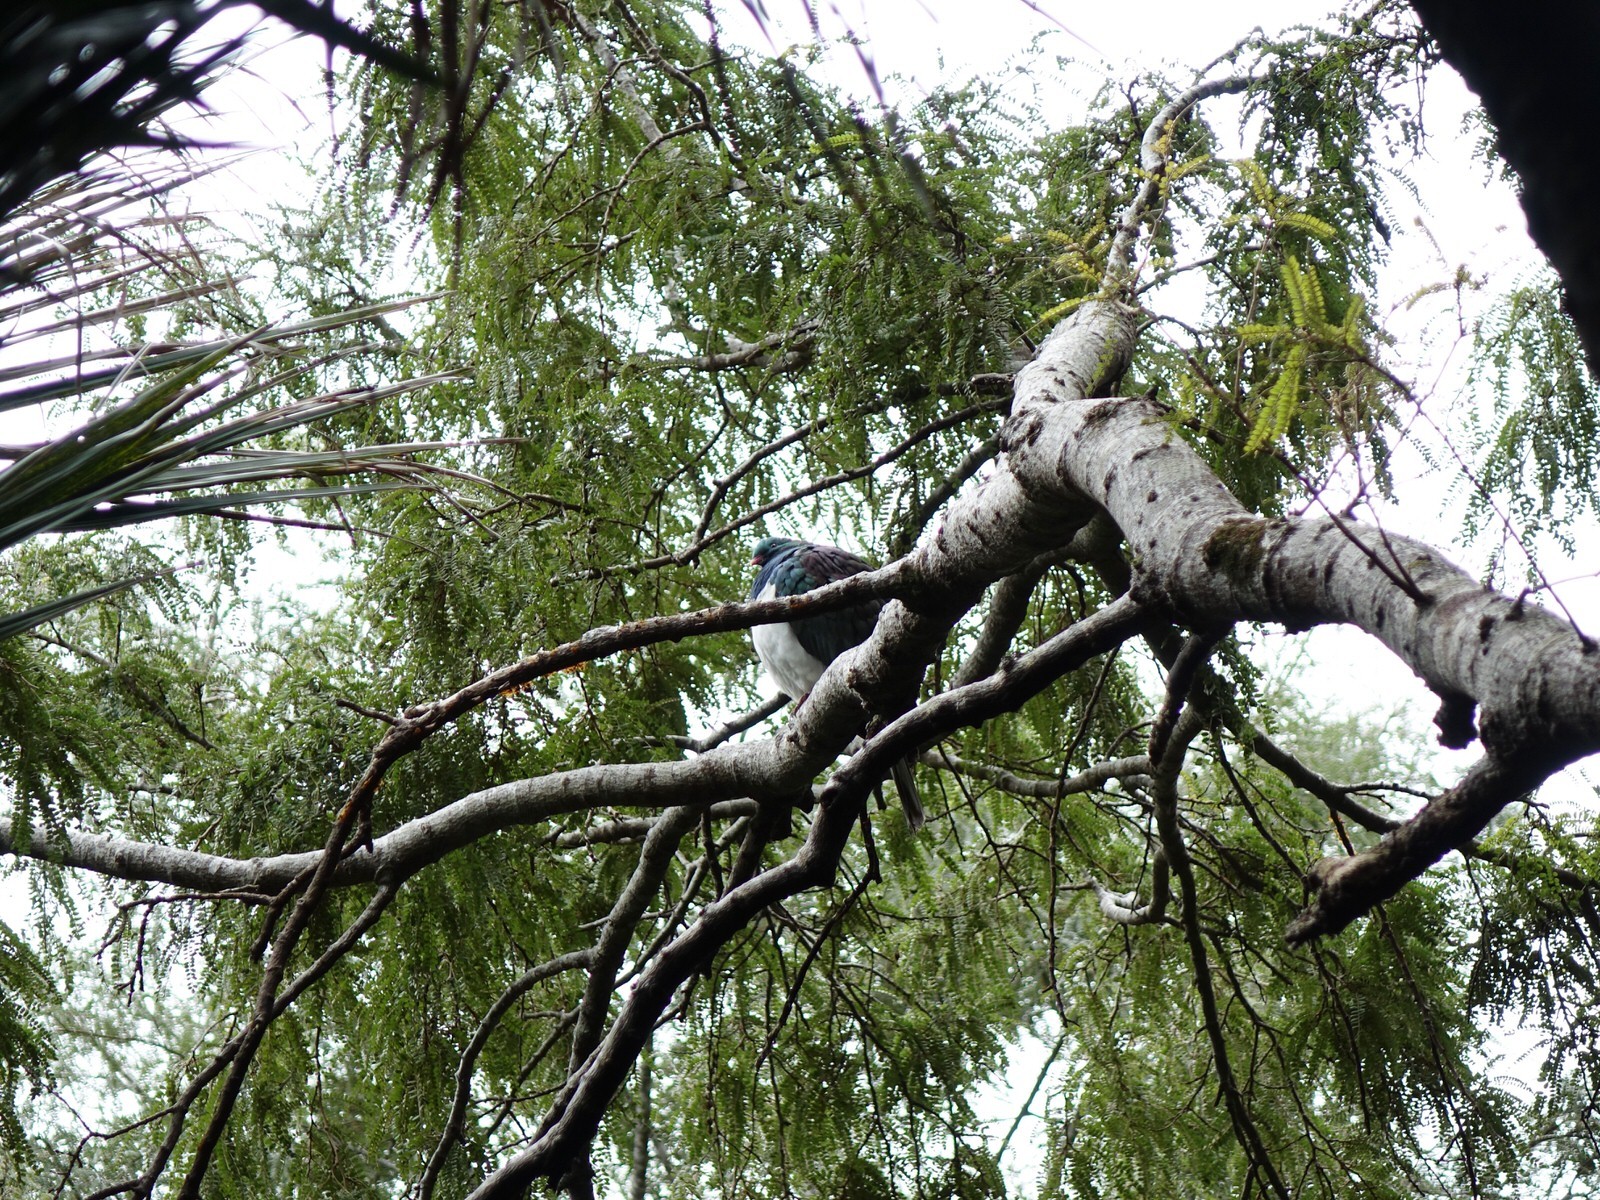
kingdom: Animalia
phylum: Chordata
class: Aves
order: Columbiformes
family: Columbidae
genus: Hemiphaga
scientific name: Hemiphaga novaeseelandiae
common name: New zealand pigeon
